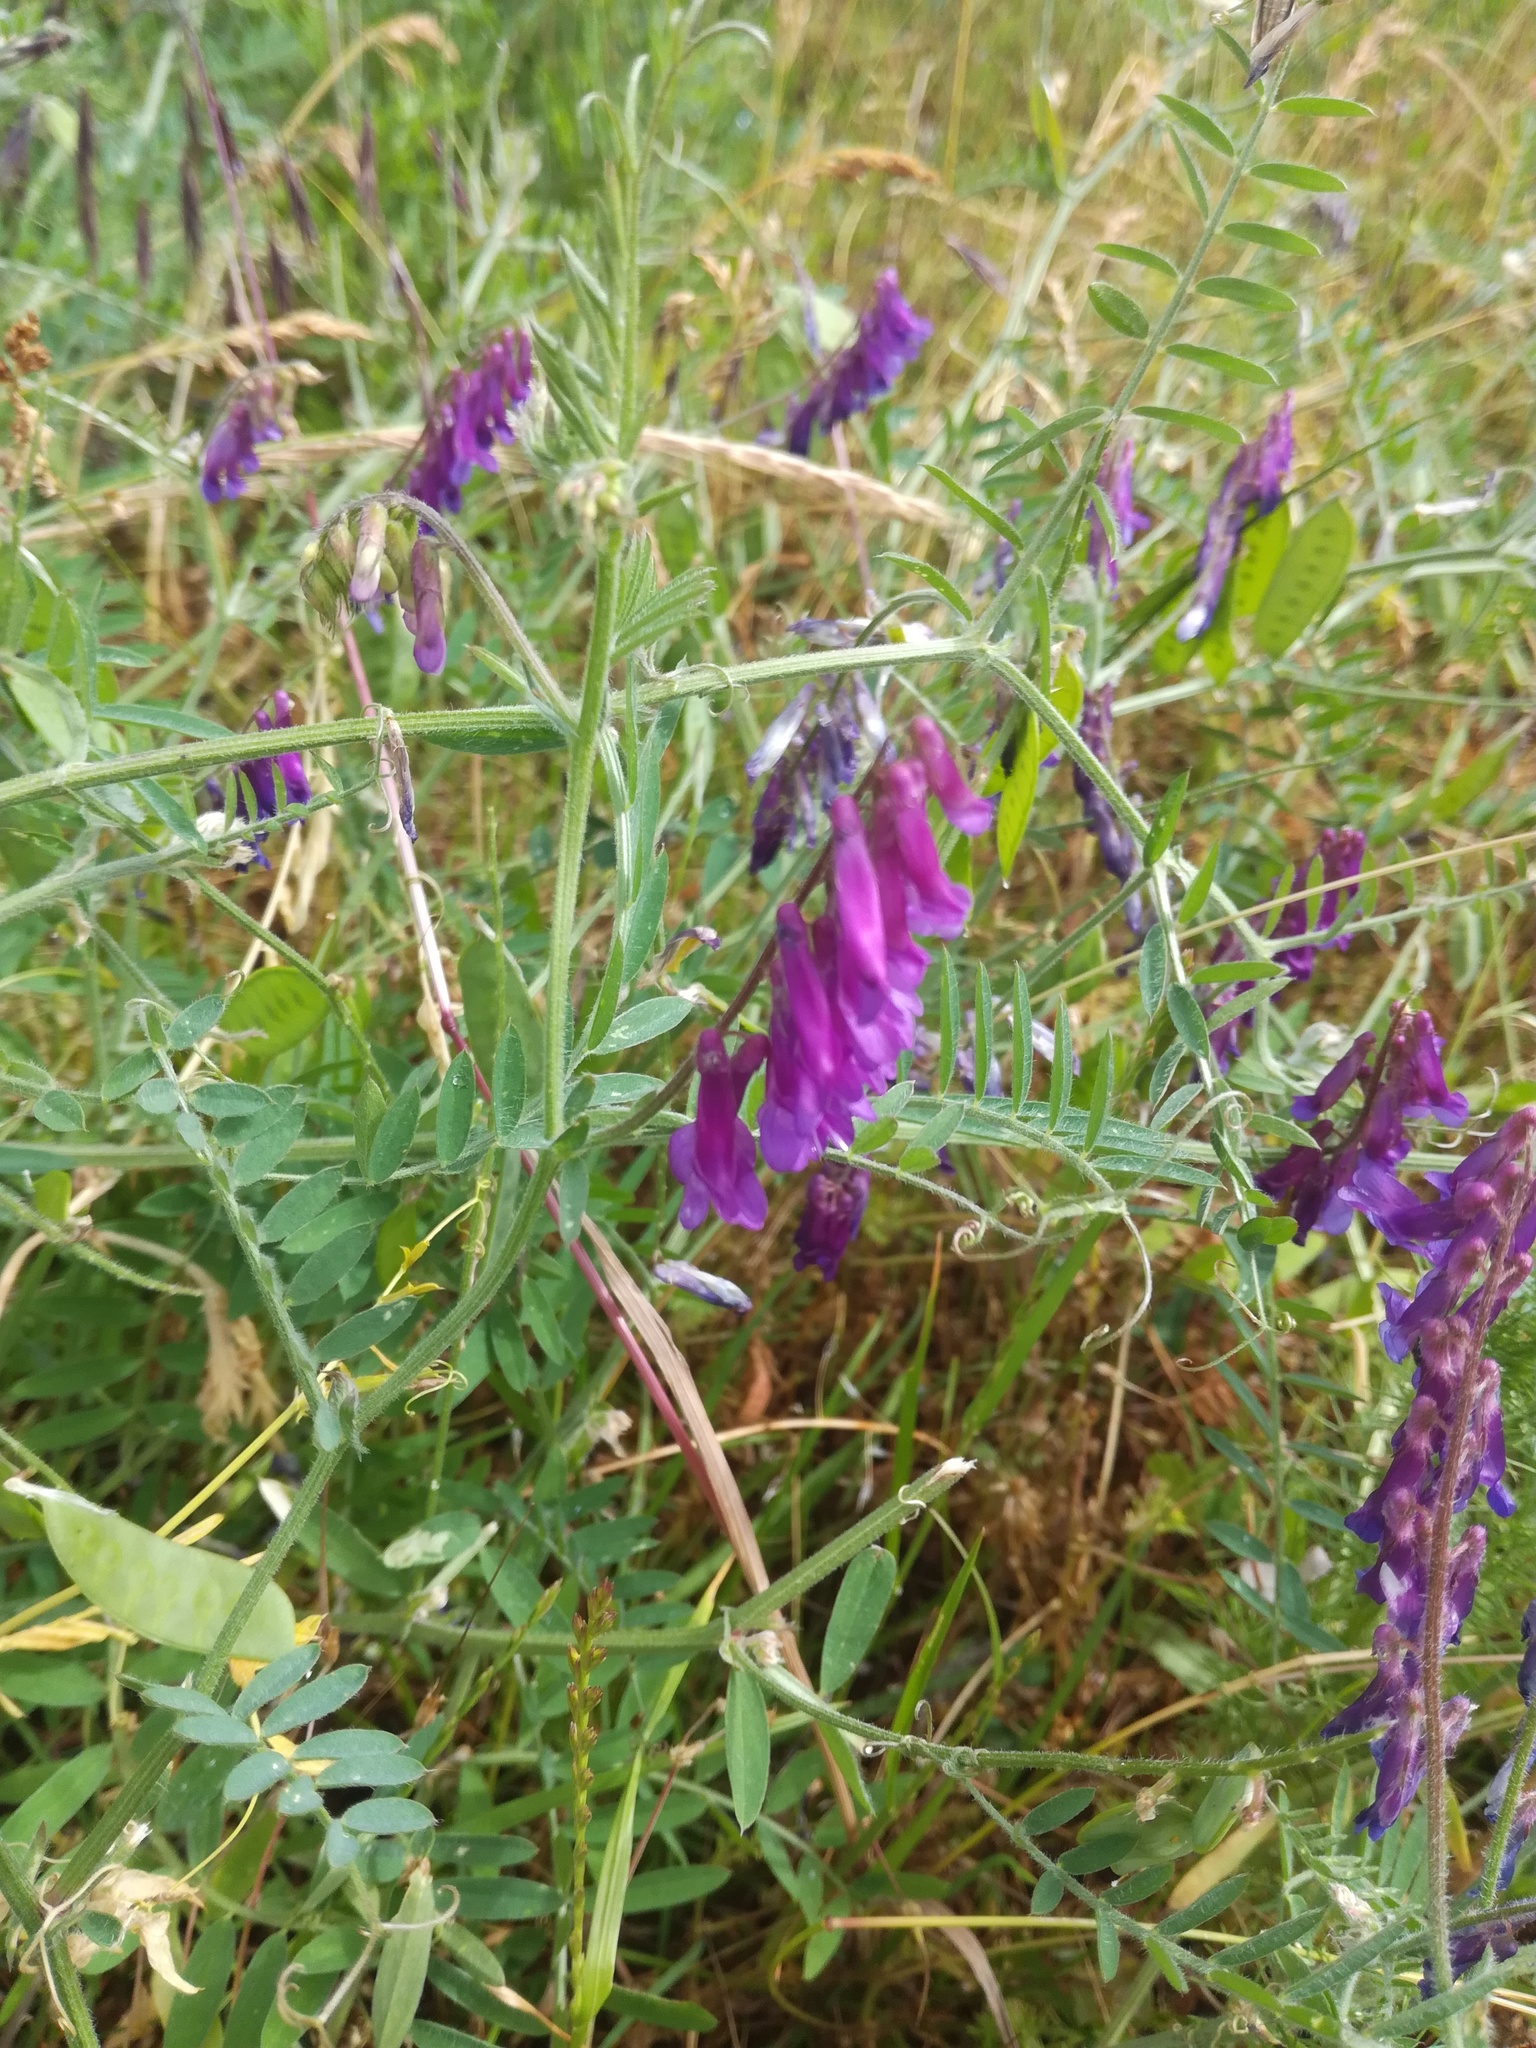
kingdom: Plantae
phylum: Tracheophyta
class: Magnoliopsida
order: Fabales
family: Fabaceae
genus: Vicia
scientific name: Vicia villosa
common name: Fodder vetch
